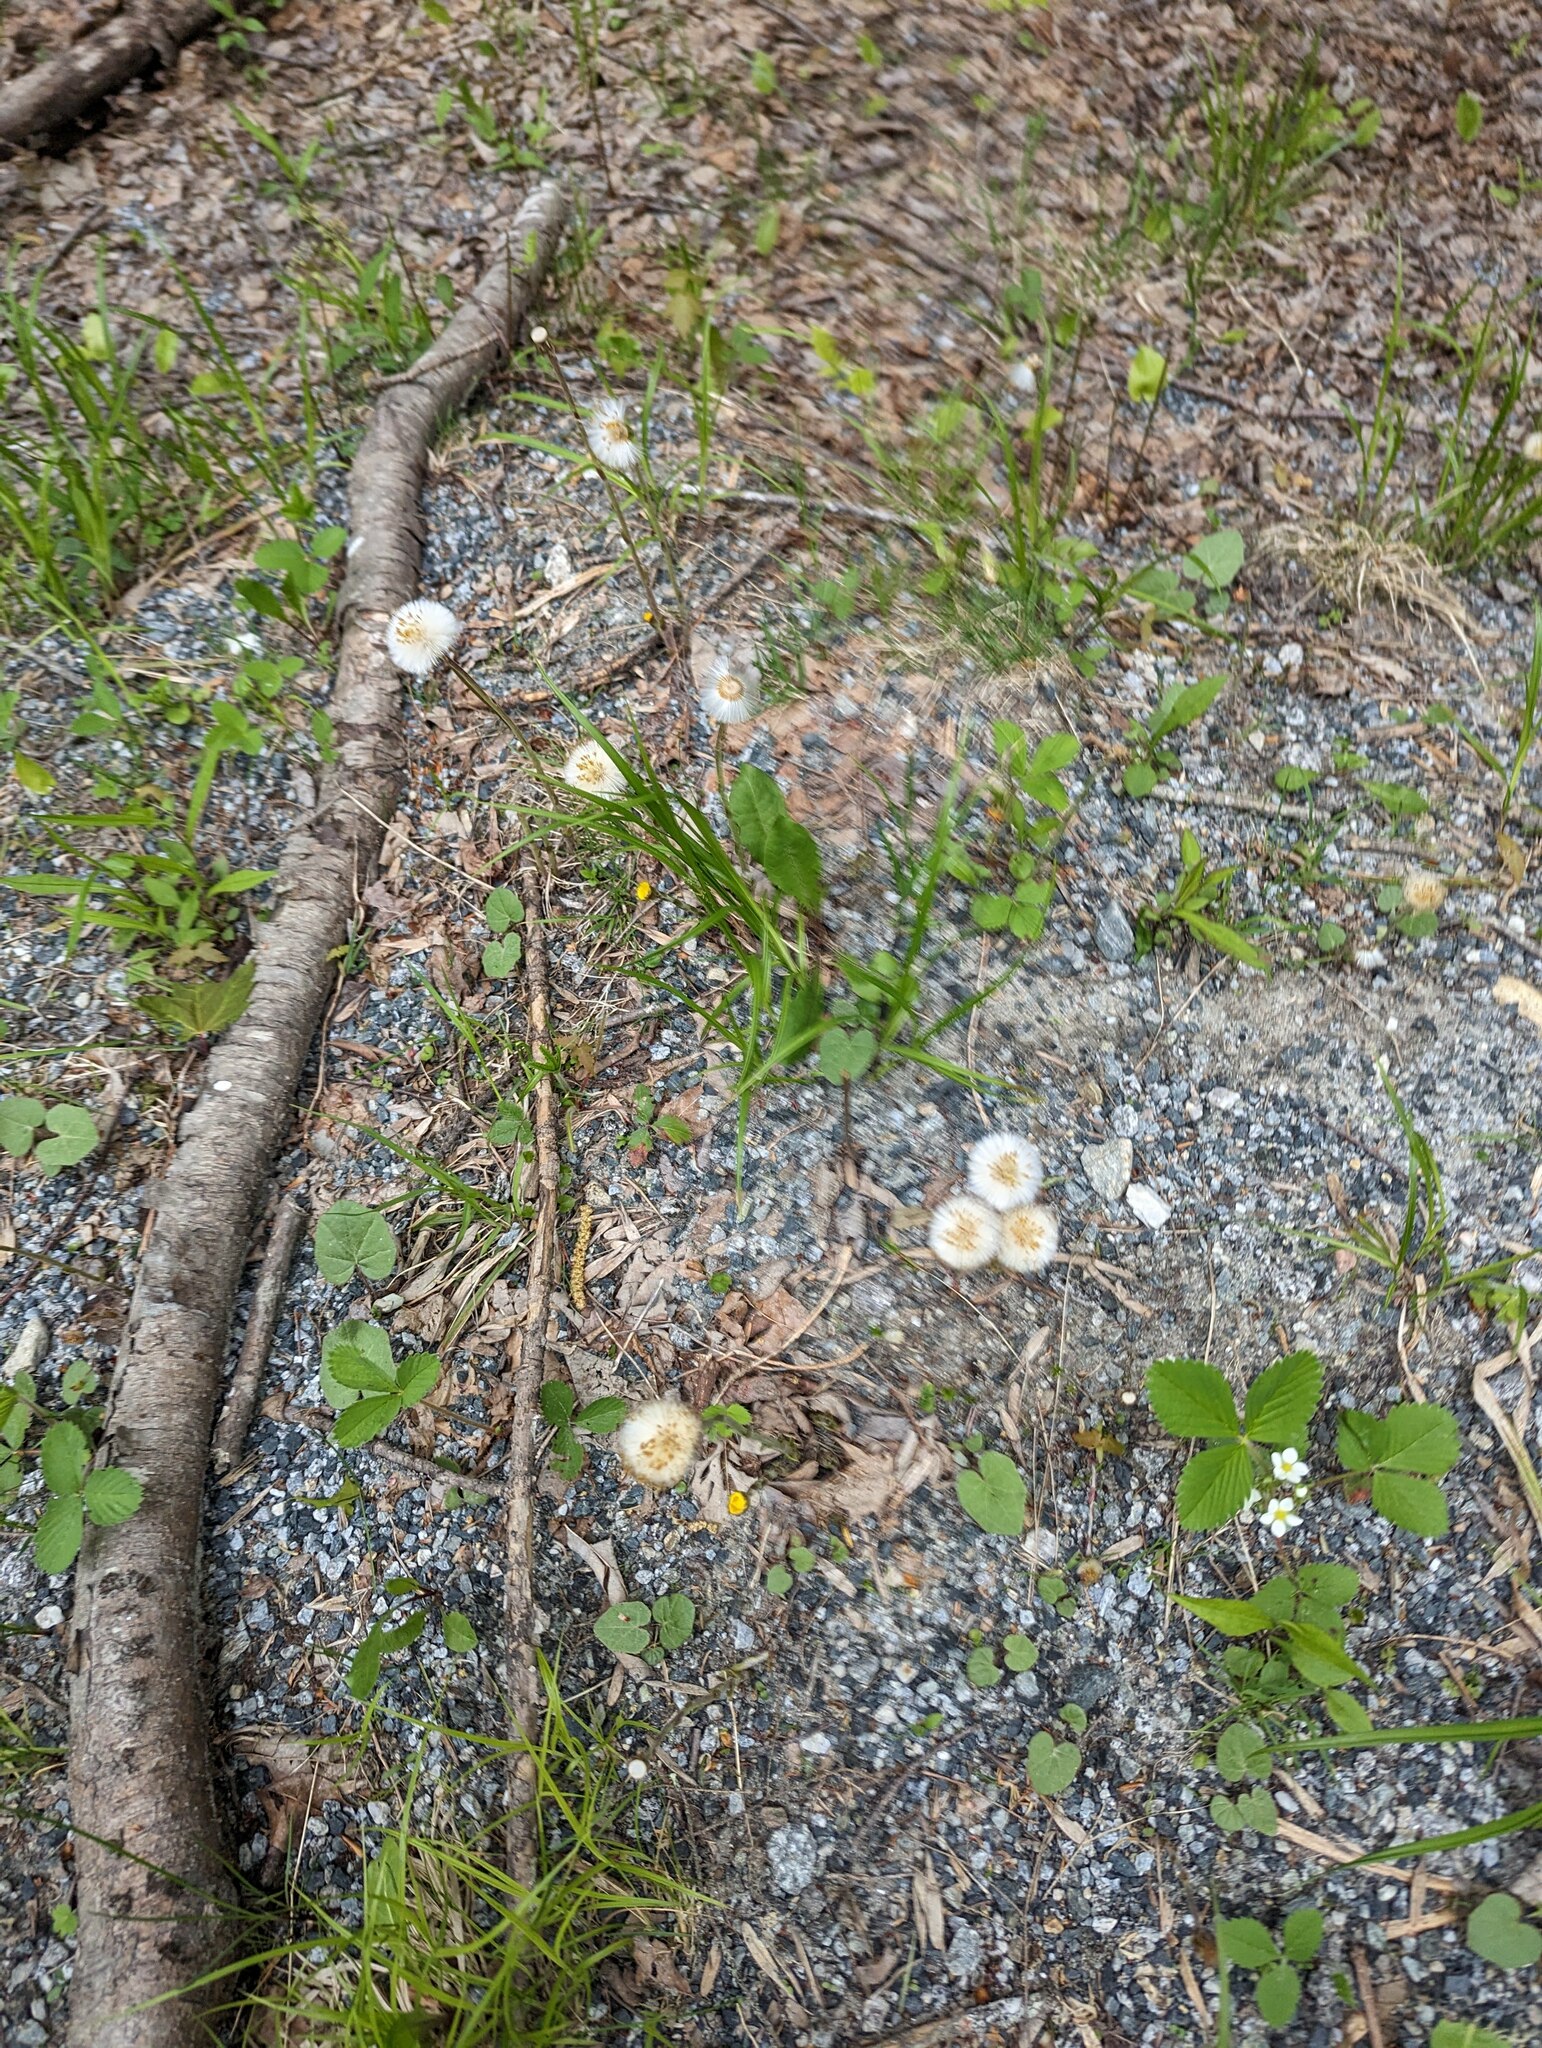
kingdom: Plantae
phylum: Tracheophyta
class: Magnoliopsida
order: Asterales
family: Asteraceae
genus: Tussilago
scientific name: Tussilago farfara
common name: Coltsfoot
